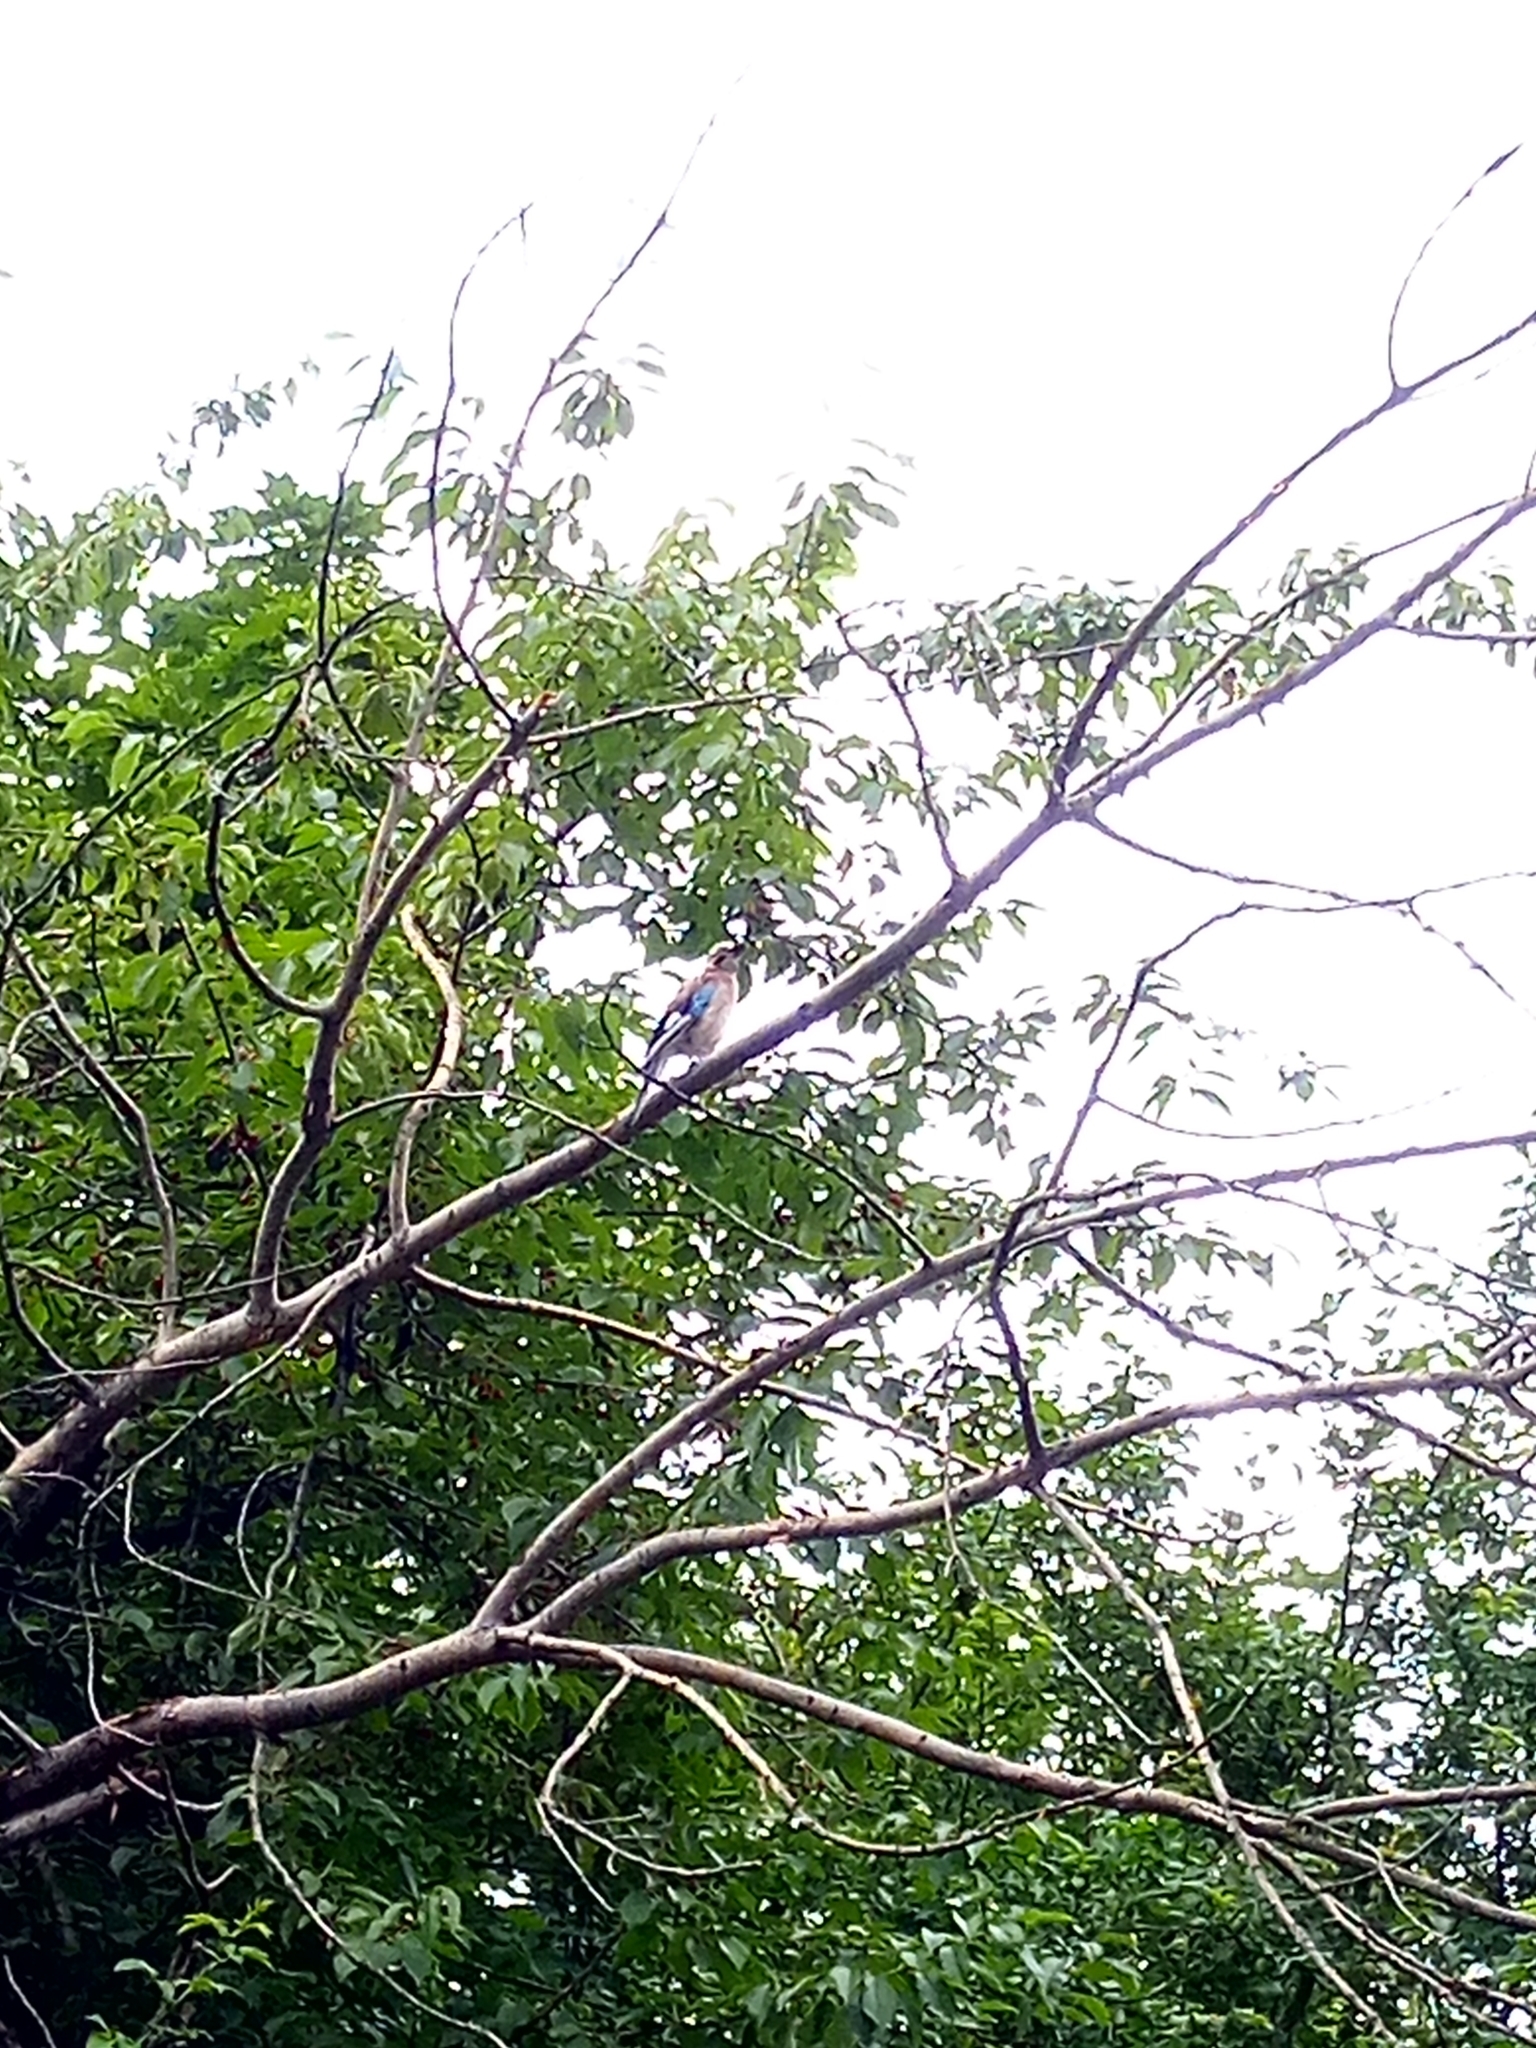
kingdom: Animalia
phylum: Chordata
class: Aves
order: Passeriformes
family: Corvidae
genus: Garrulus
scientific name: Garrulus glandarius
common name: Eurasian jay
